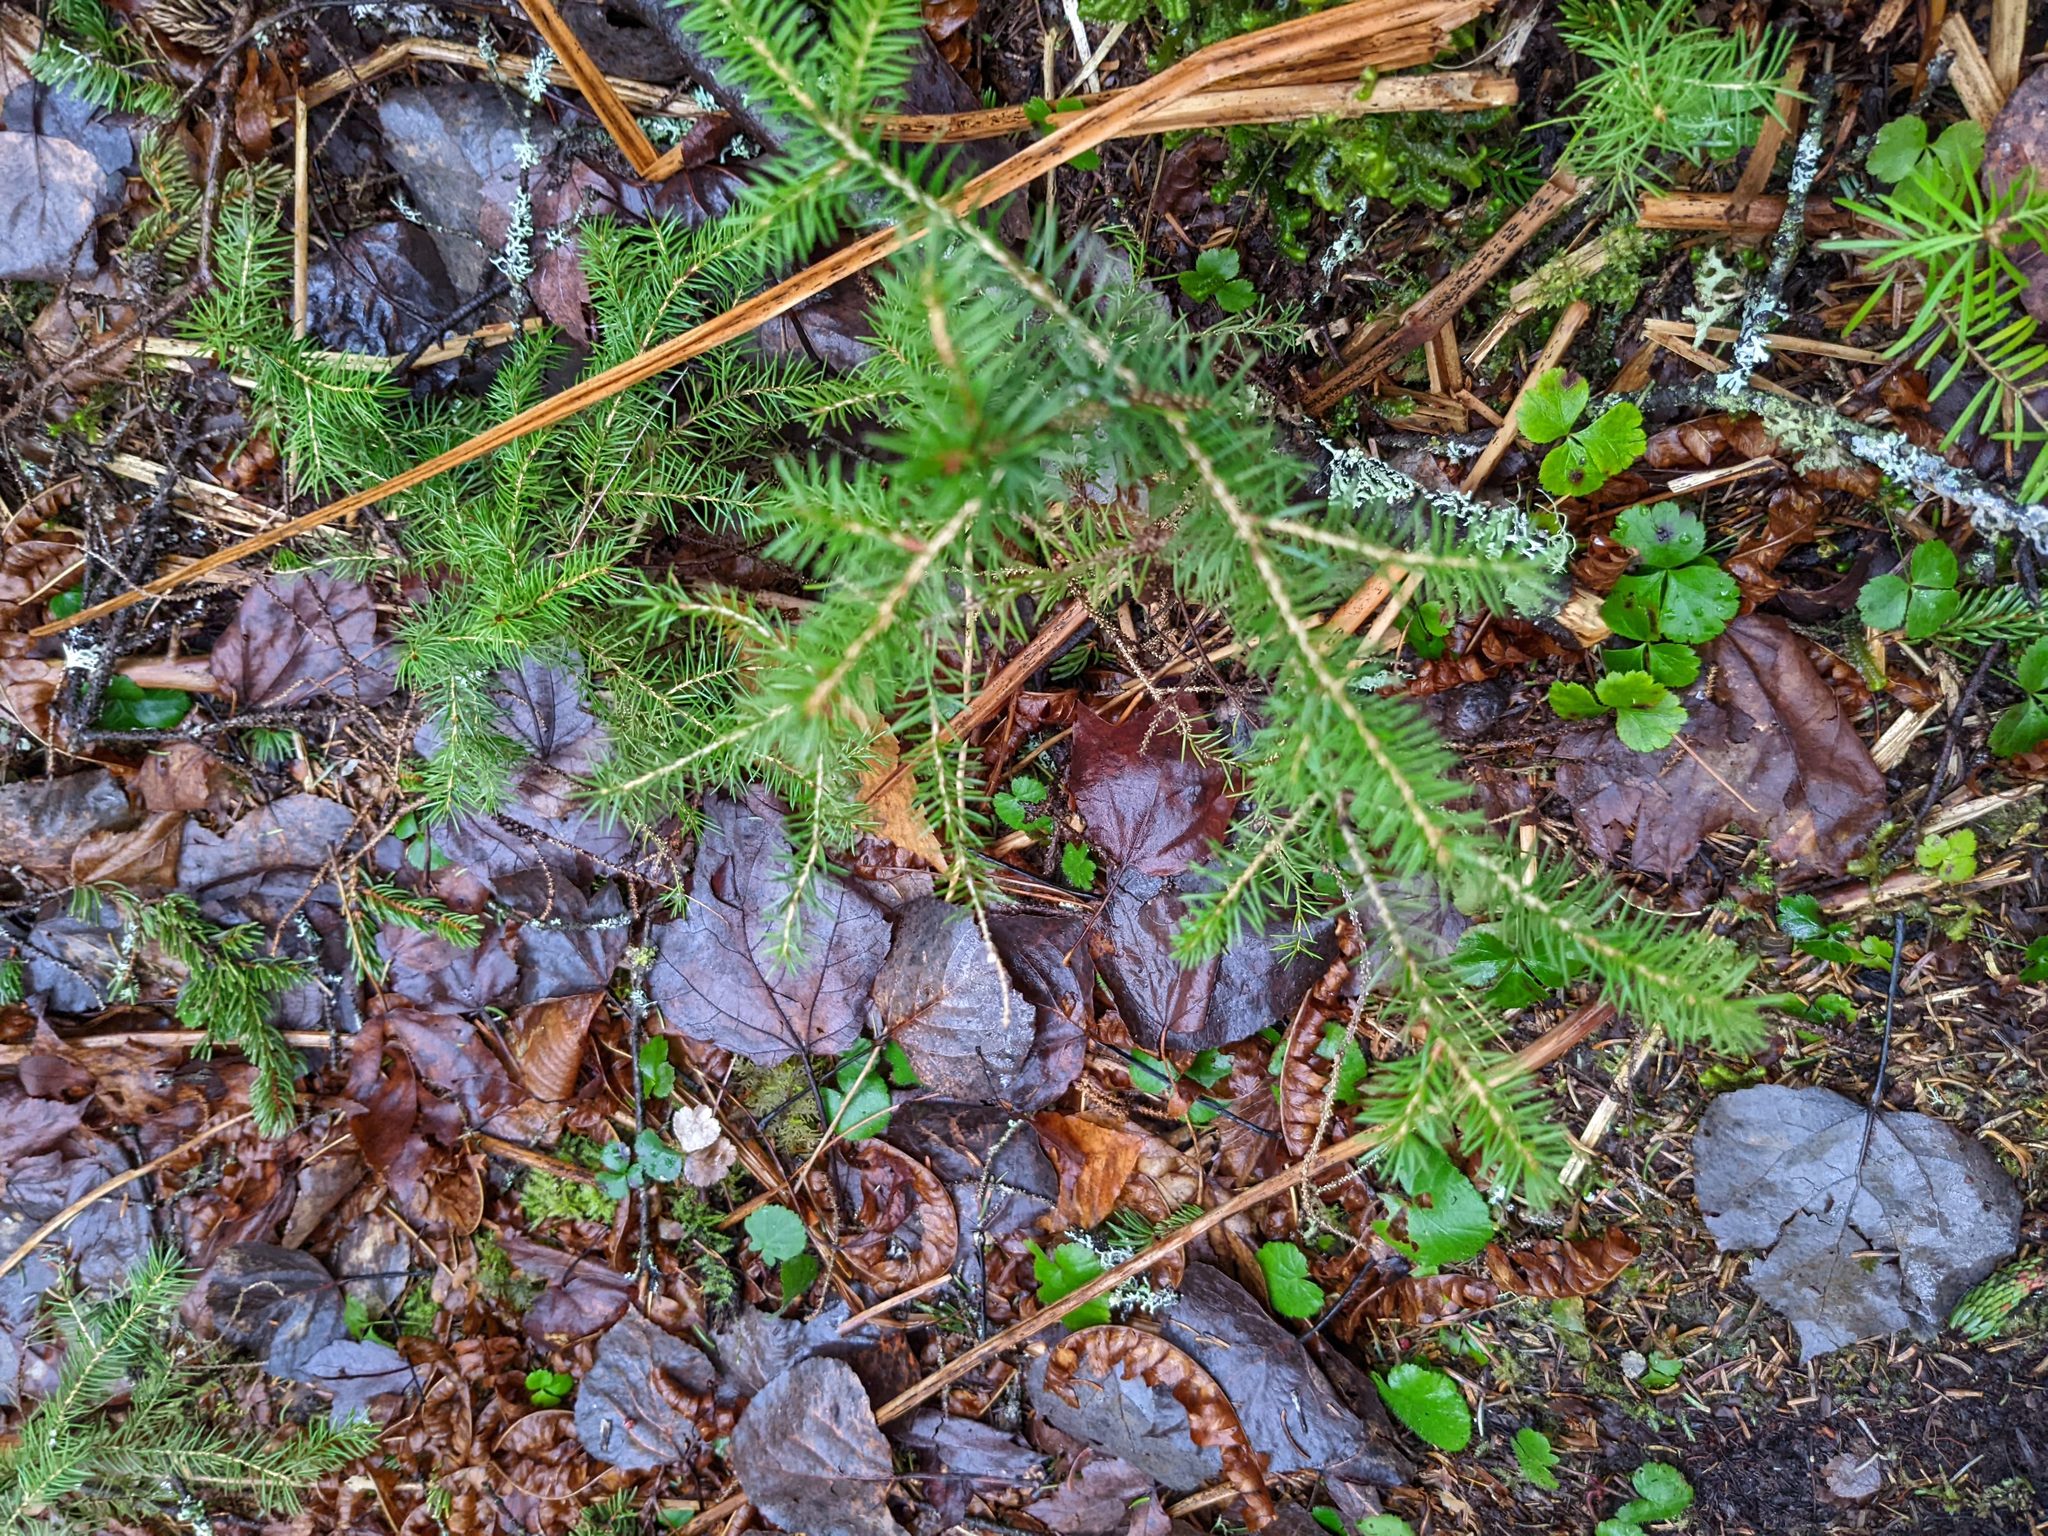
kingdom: Plantae
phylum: Tracheophyta
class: Pinopsida
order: Pinales
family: Pinaceae
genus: Picea
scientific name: Picea rubens
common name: Red spruce
